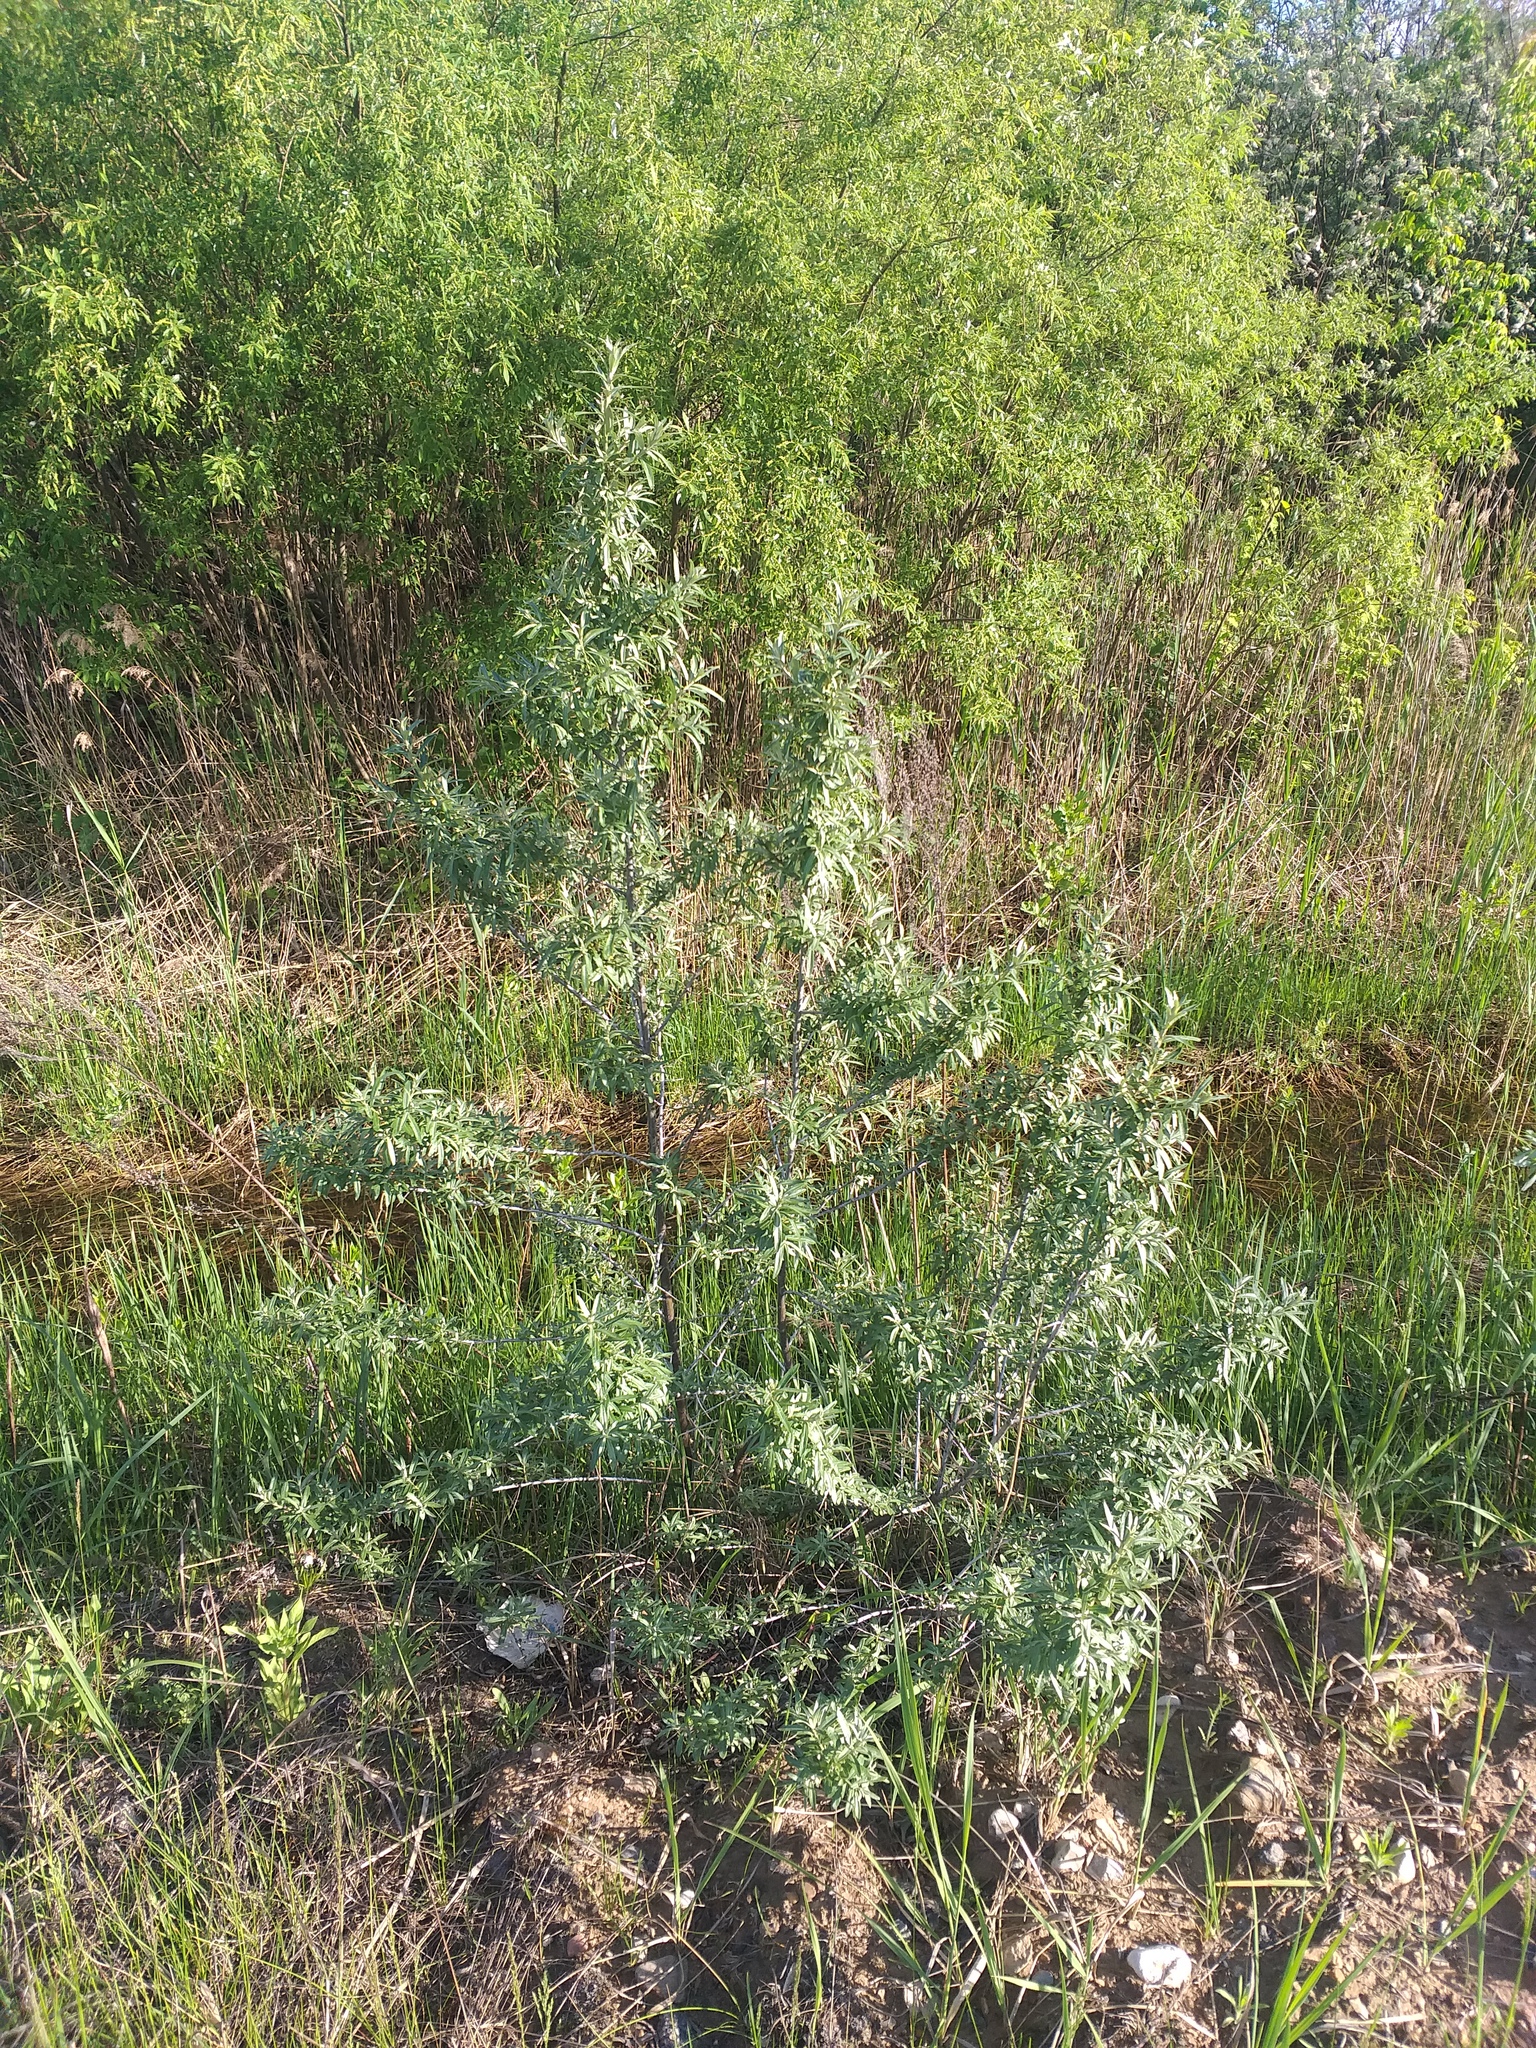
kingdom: Plantae
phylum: Tracheophyta
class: Magnoliopsida
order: Rosales
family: Elaeagnaceae
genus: Hippophae
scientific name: Hippophae rhamnoides
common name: Sea-buckthorn
